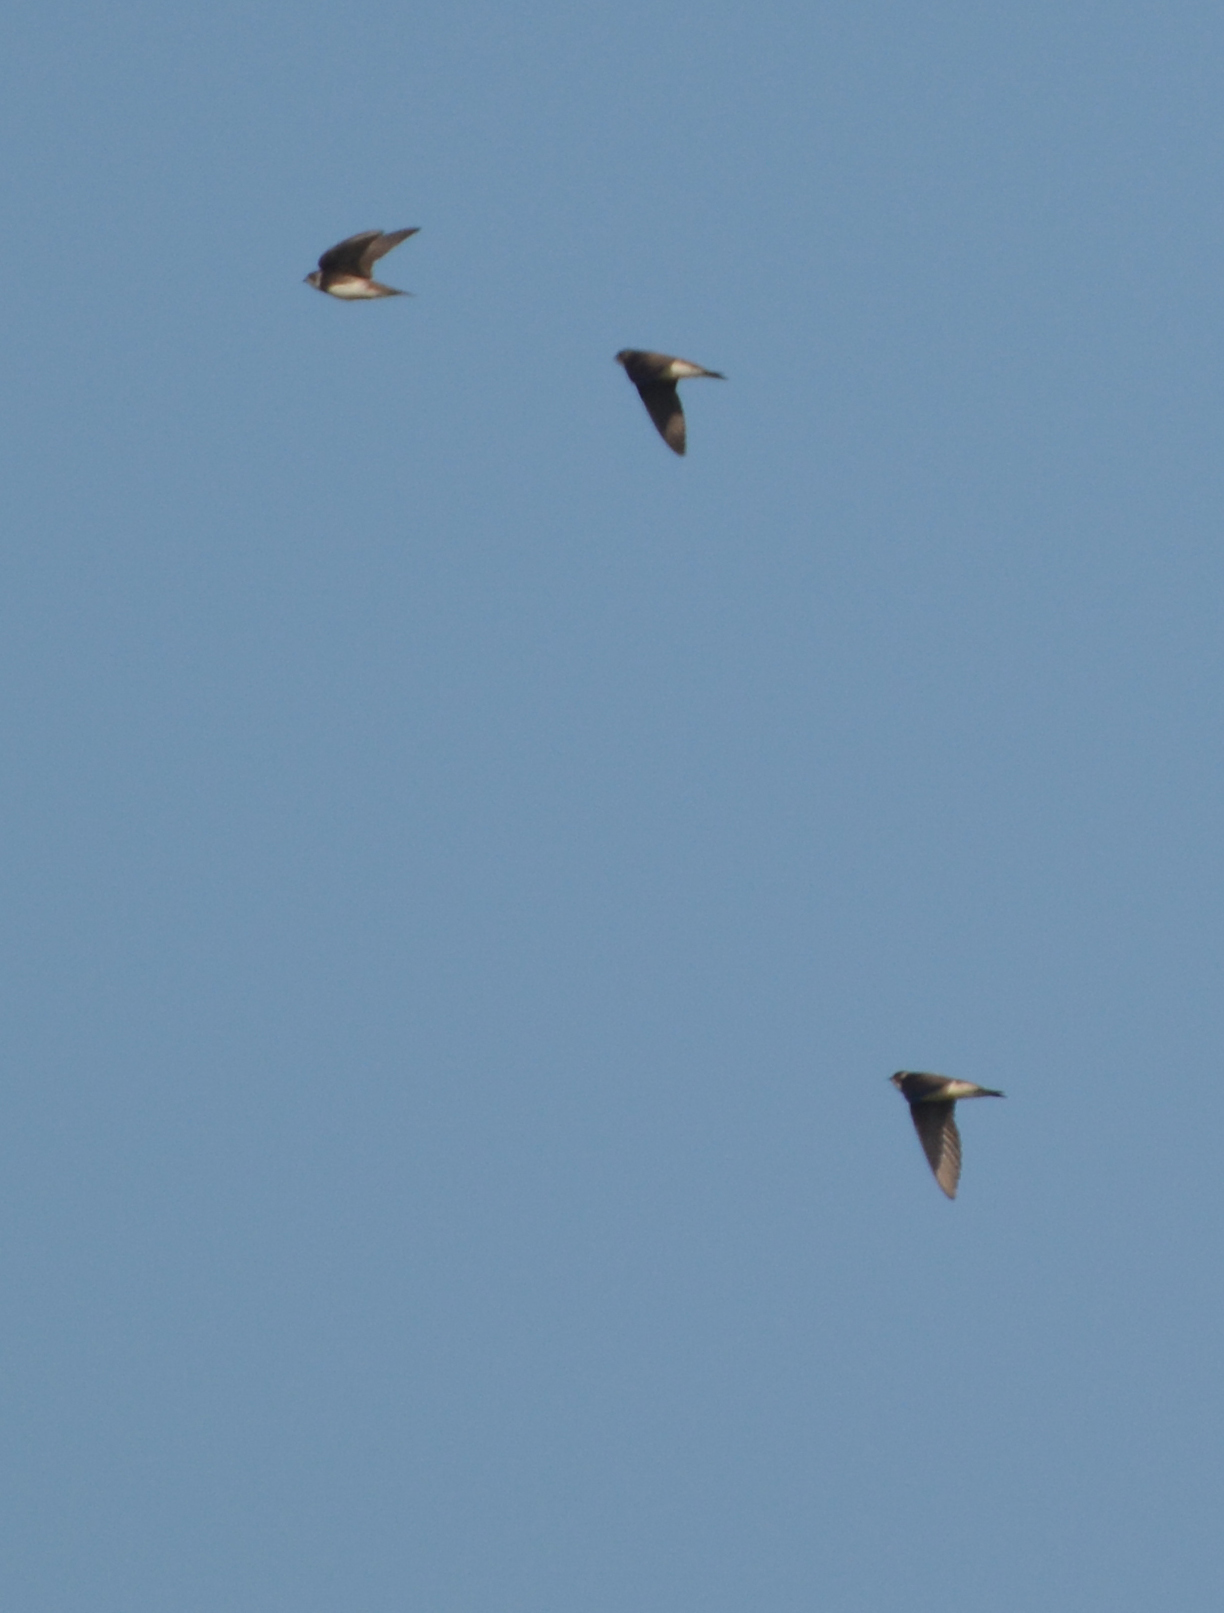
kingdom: Animalia
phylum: Chordata
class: Aves
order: Passeriformes
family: Hirundinidae
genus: Riparia
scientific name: Riparia riparia
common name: Sand martin
